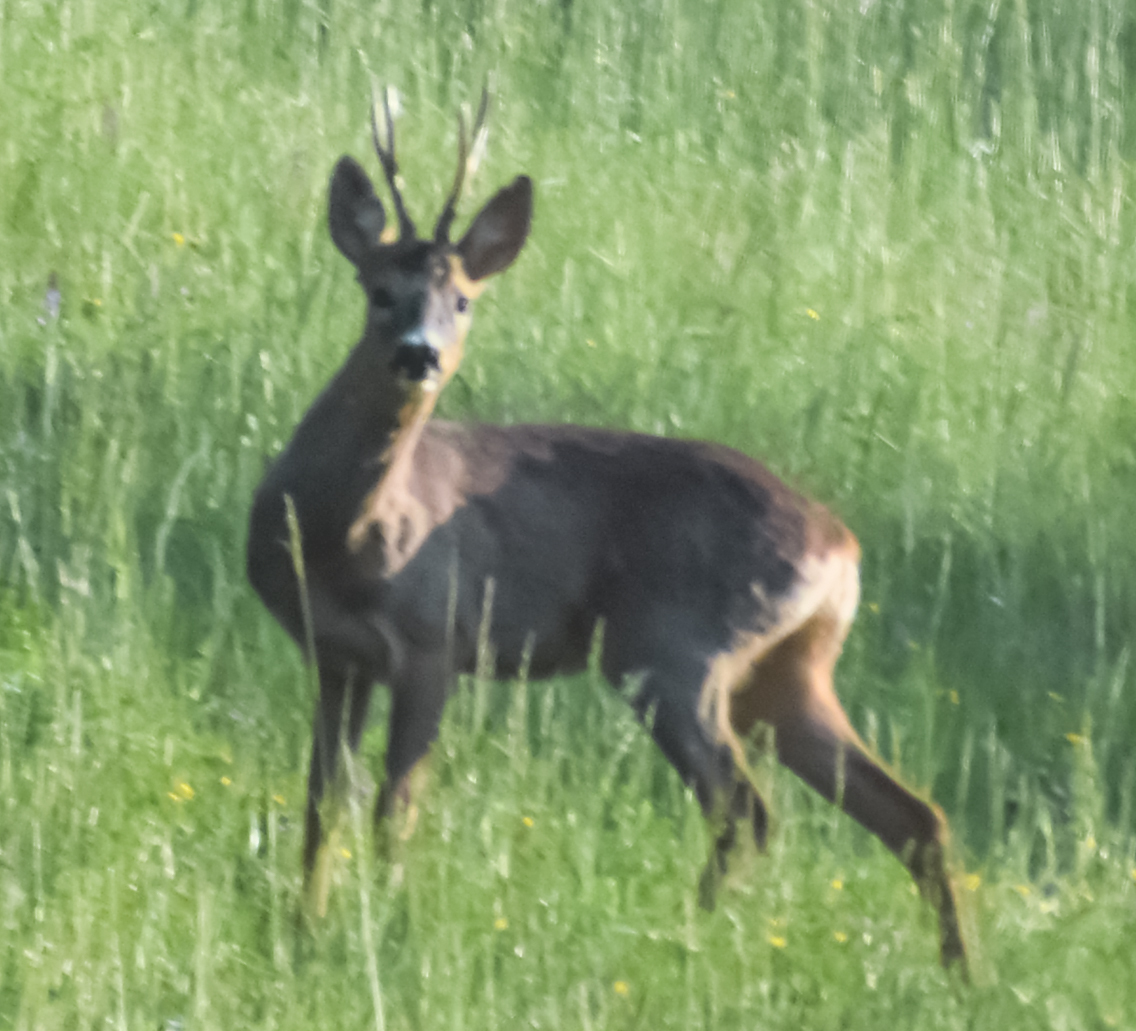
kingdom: Animalia
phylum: Chordata
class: Mammalia
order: Artiodactyla
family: Cervidae
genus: Capreolus
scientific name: Capreolus capreolus
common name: Western roe deer
